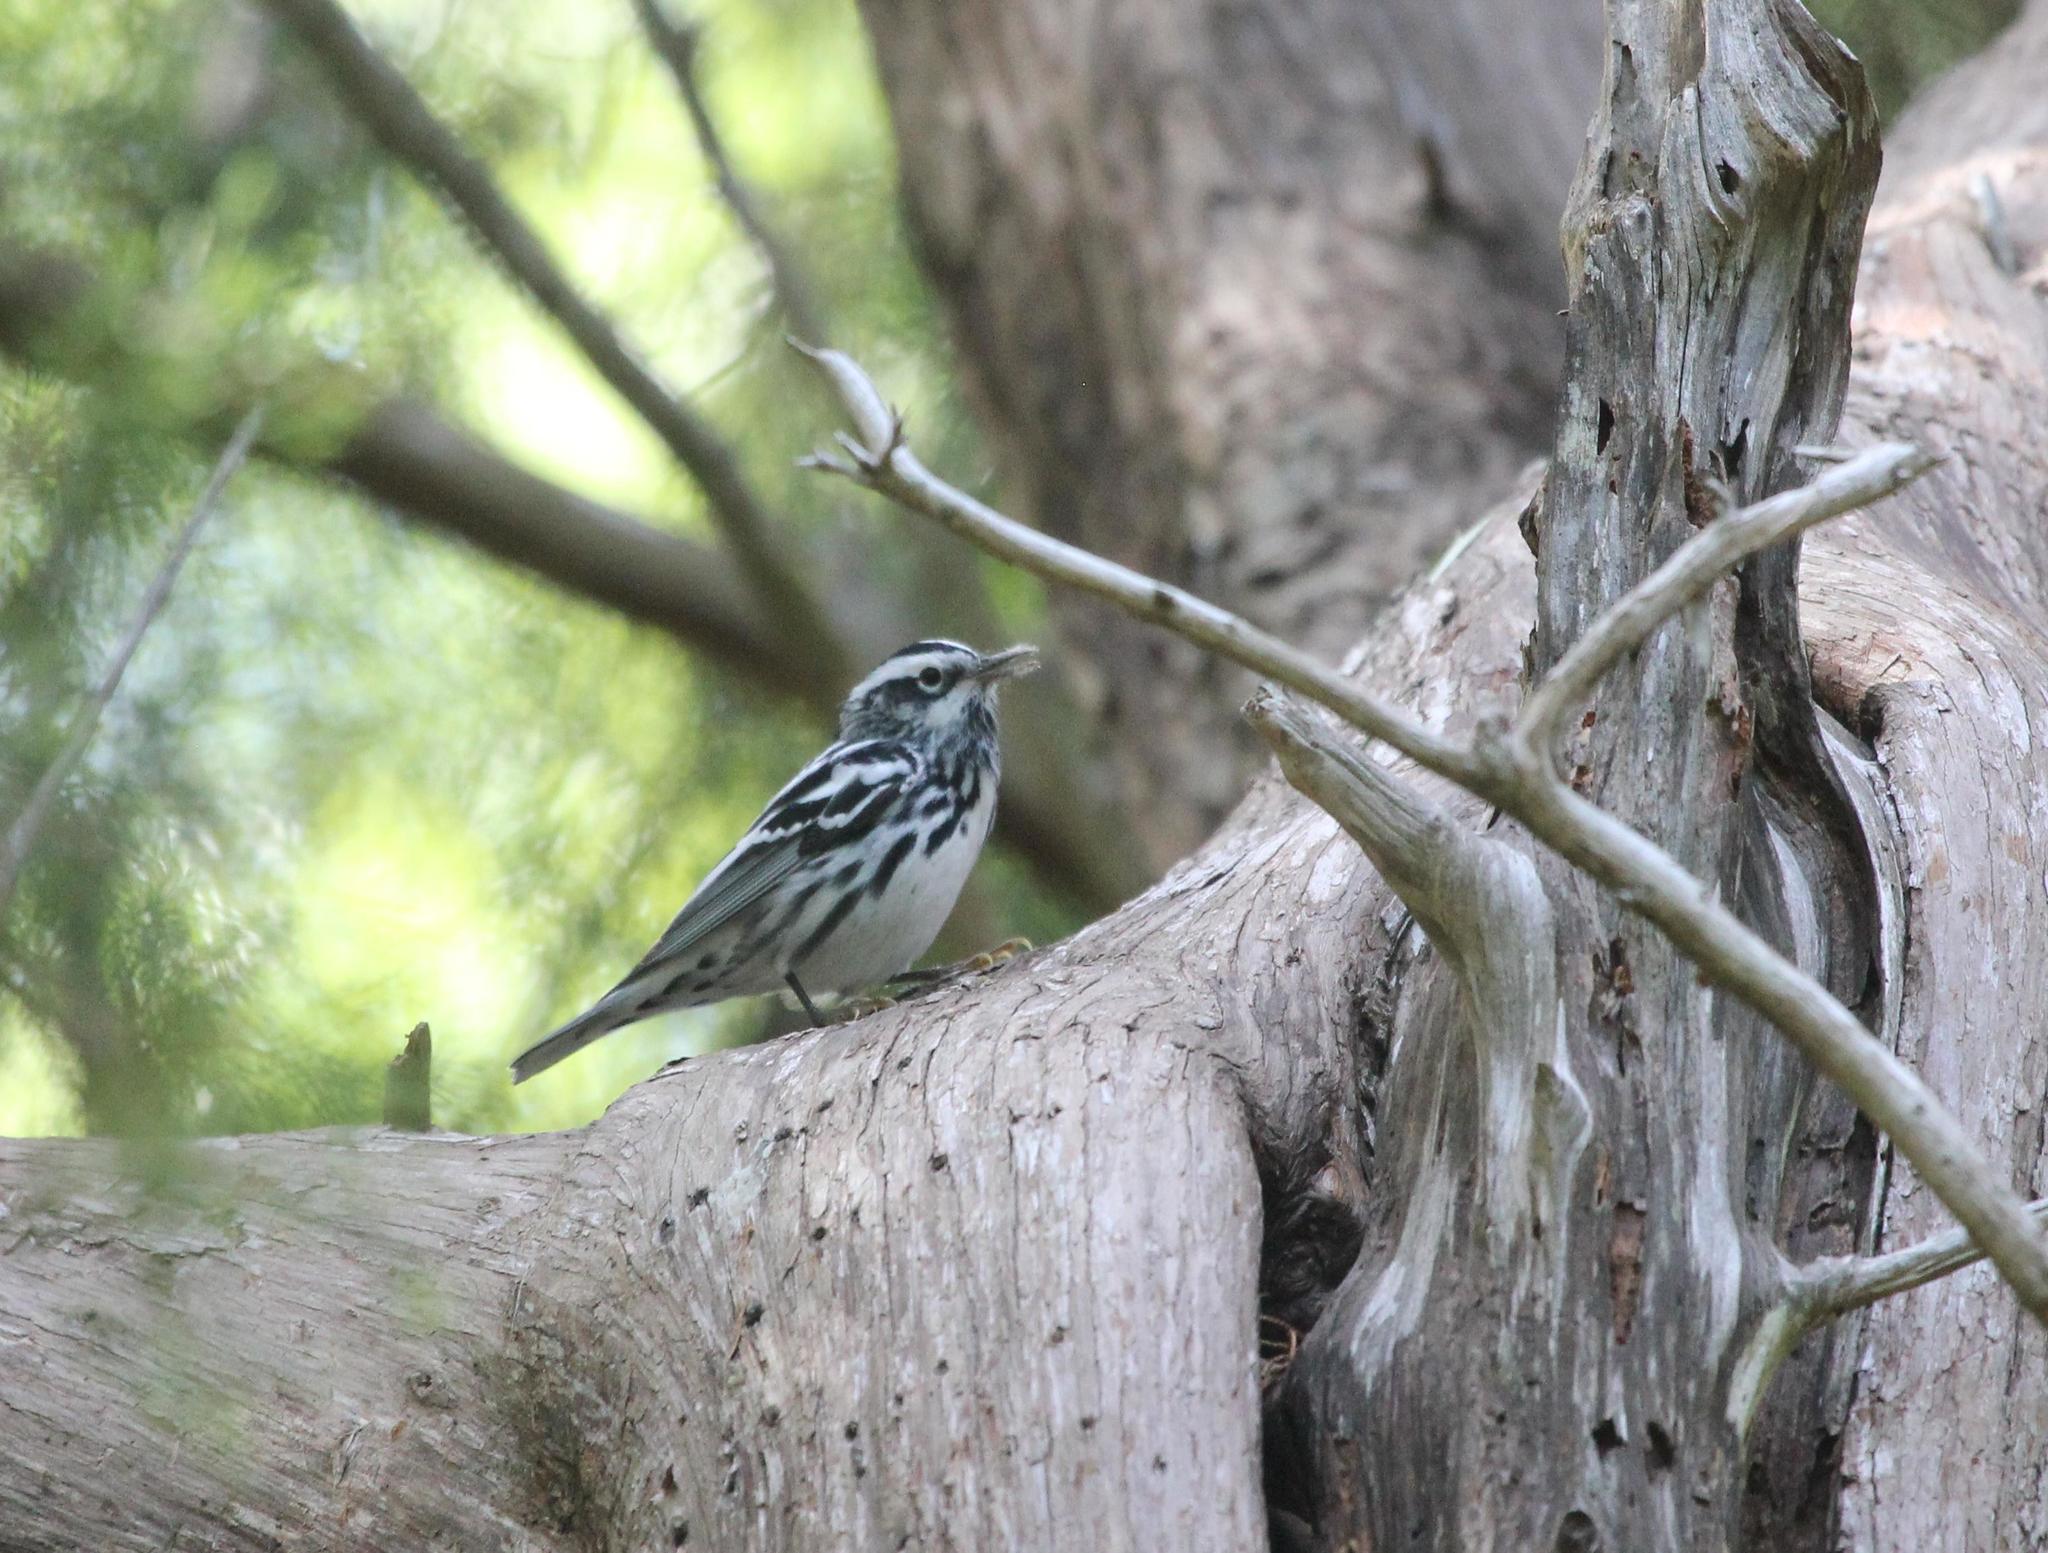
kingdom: Animalia
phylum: Chordata
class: Aves
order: Passeriformes
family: Parulidae
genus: Mniotilta
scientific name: Mniotilta varia
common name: Black-and-white warbler
